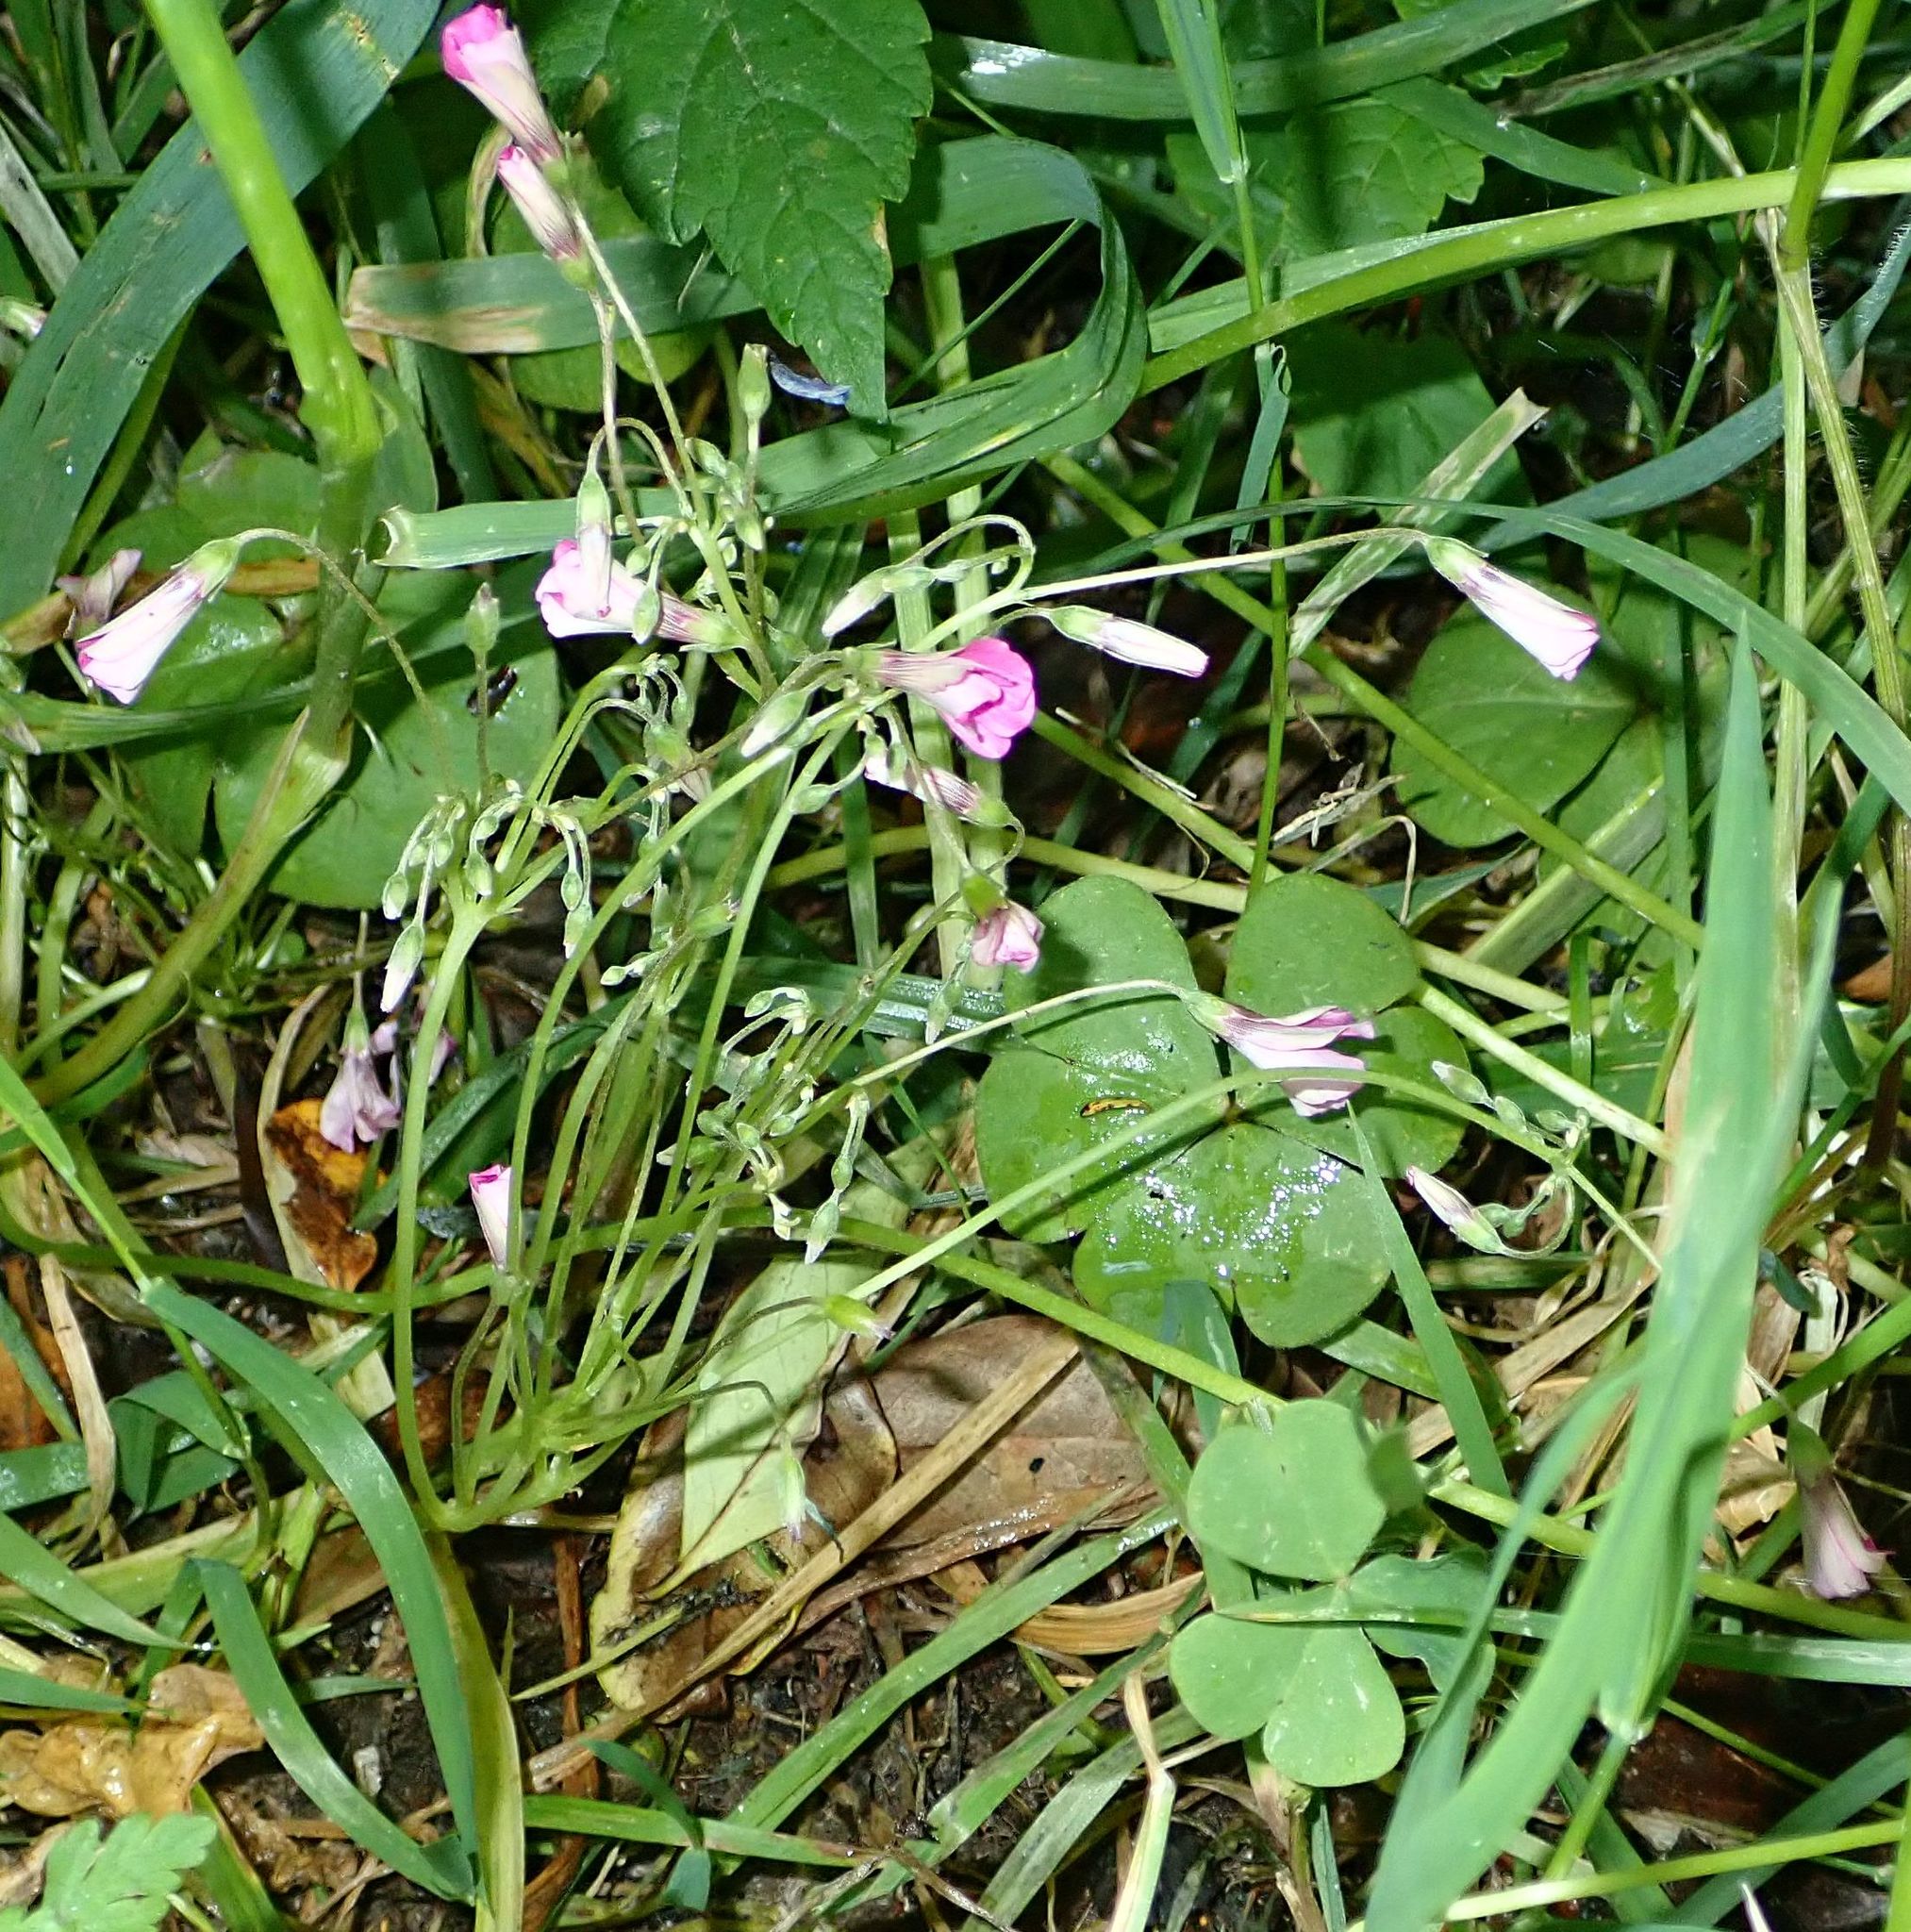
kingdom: Plantae
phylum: Tracheophyta
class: Magnoliopsida
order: Oxalidales
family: Oxalidaceae
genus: Oxalis
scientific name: Oxalis articulata
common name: Pink-sorrel
